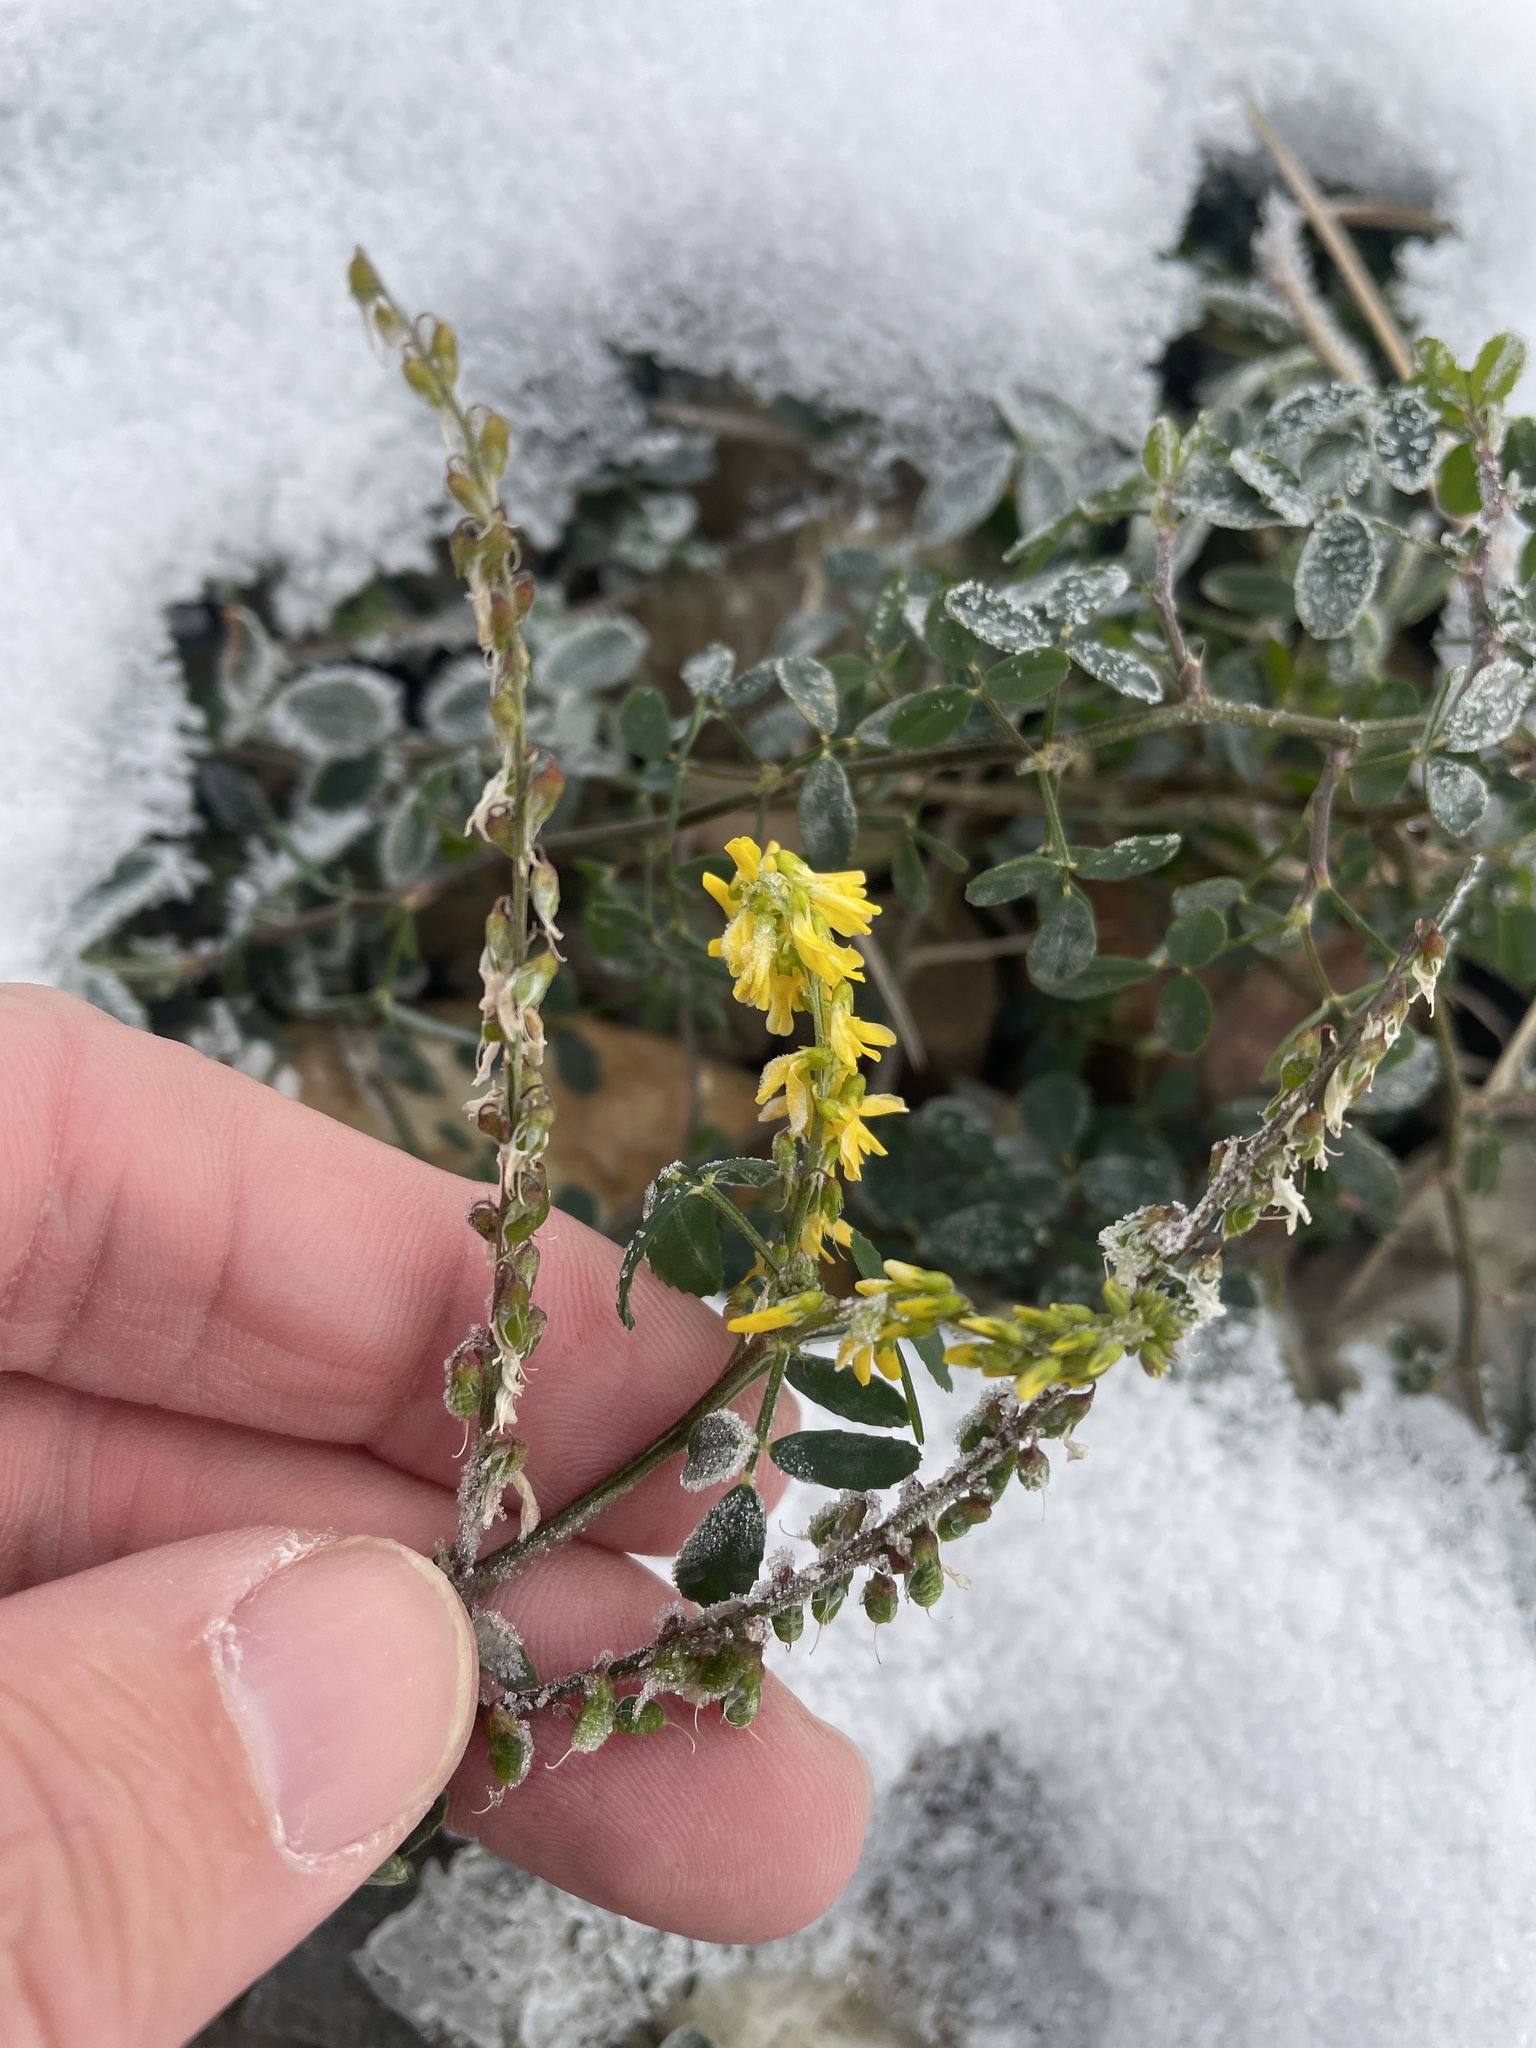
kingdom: Plantae
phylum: Tracheophyta
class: Magnoliopsida
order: Fabales
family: Fabaceae
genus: Melilotus
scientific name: Melilotus officinalis
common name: Sweetclover
